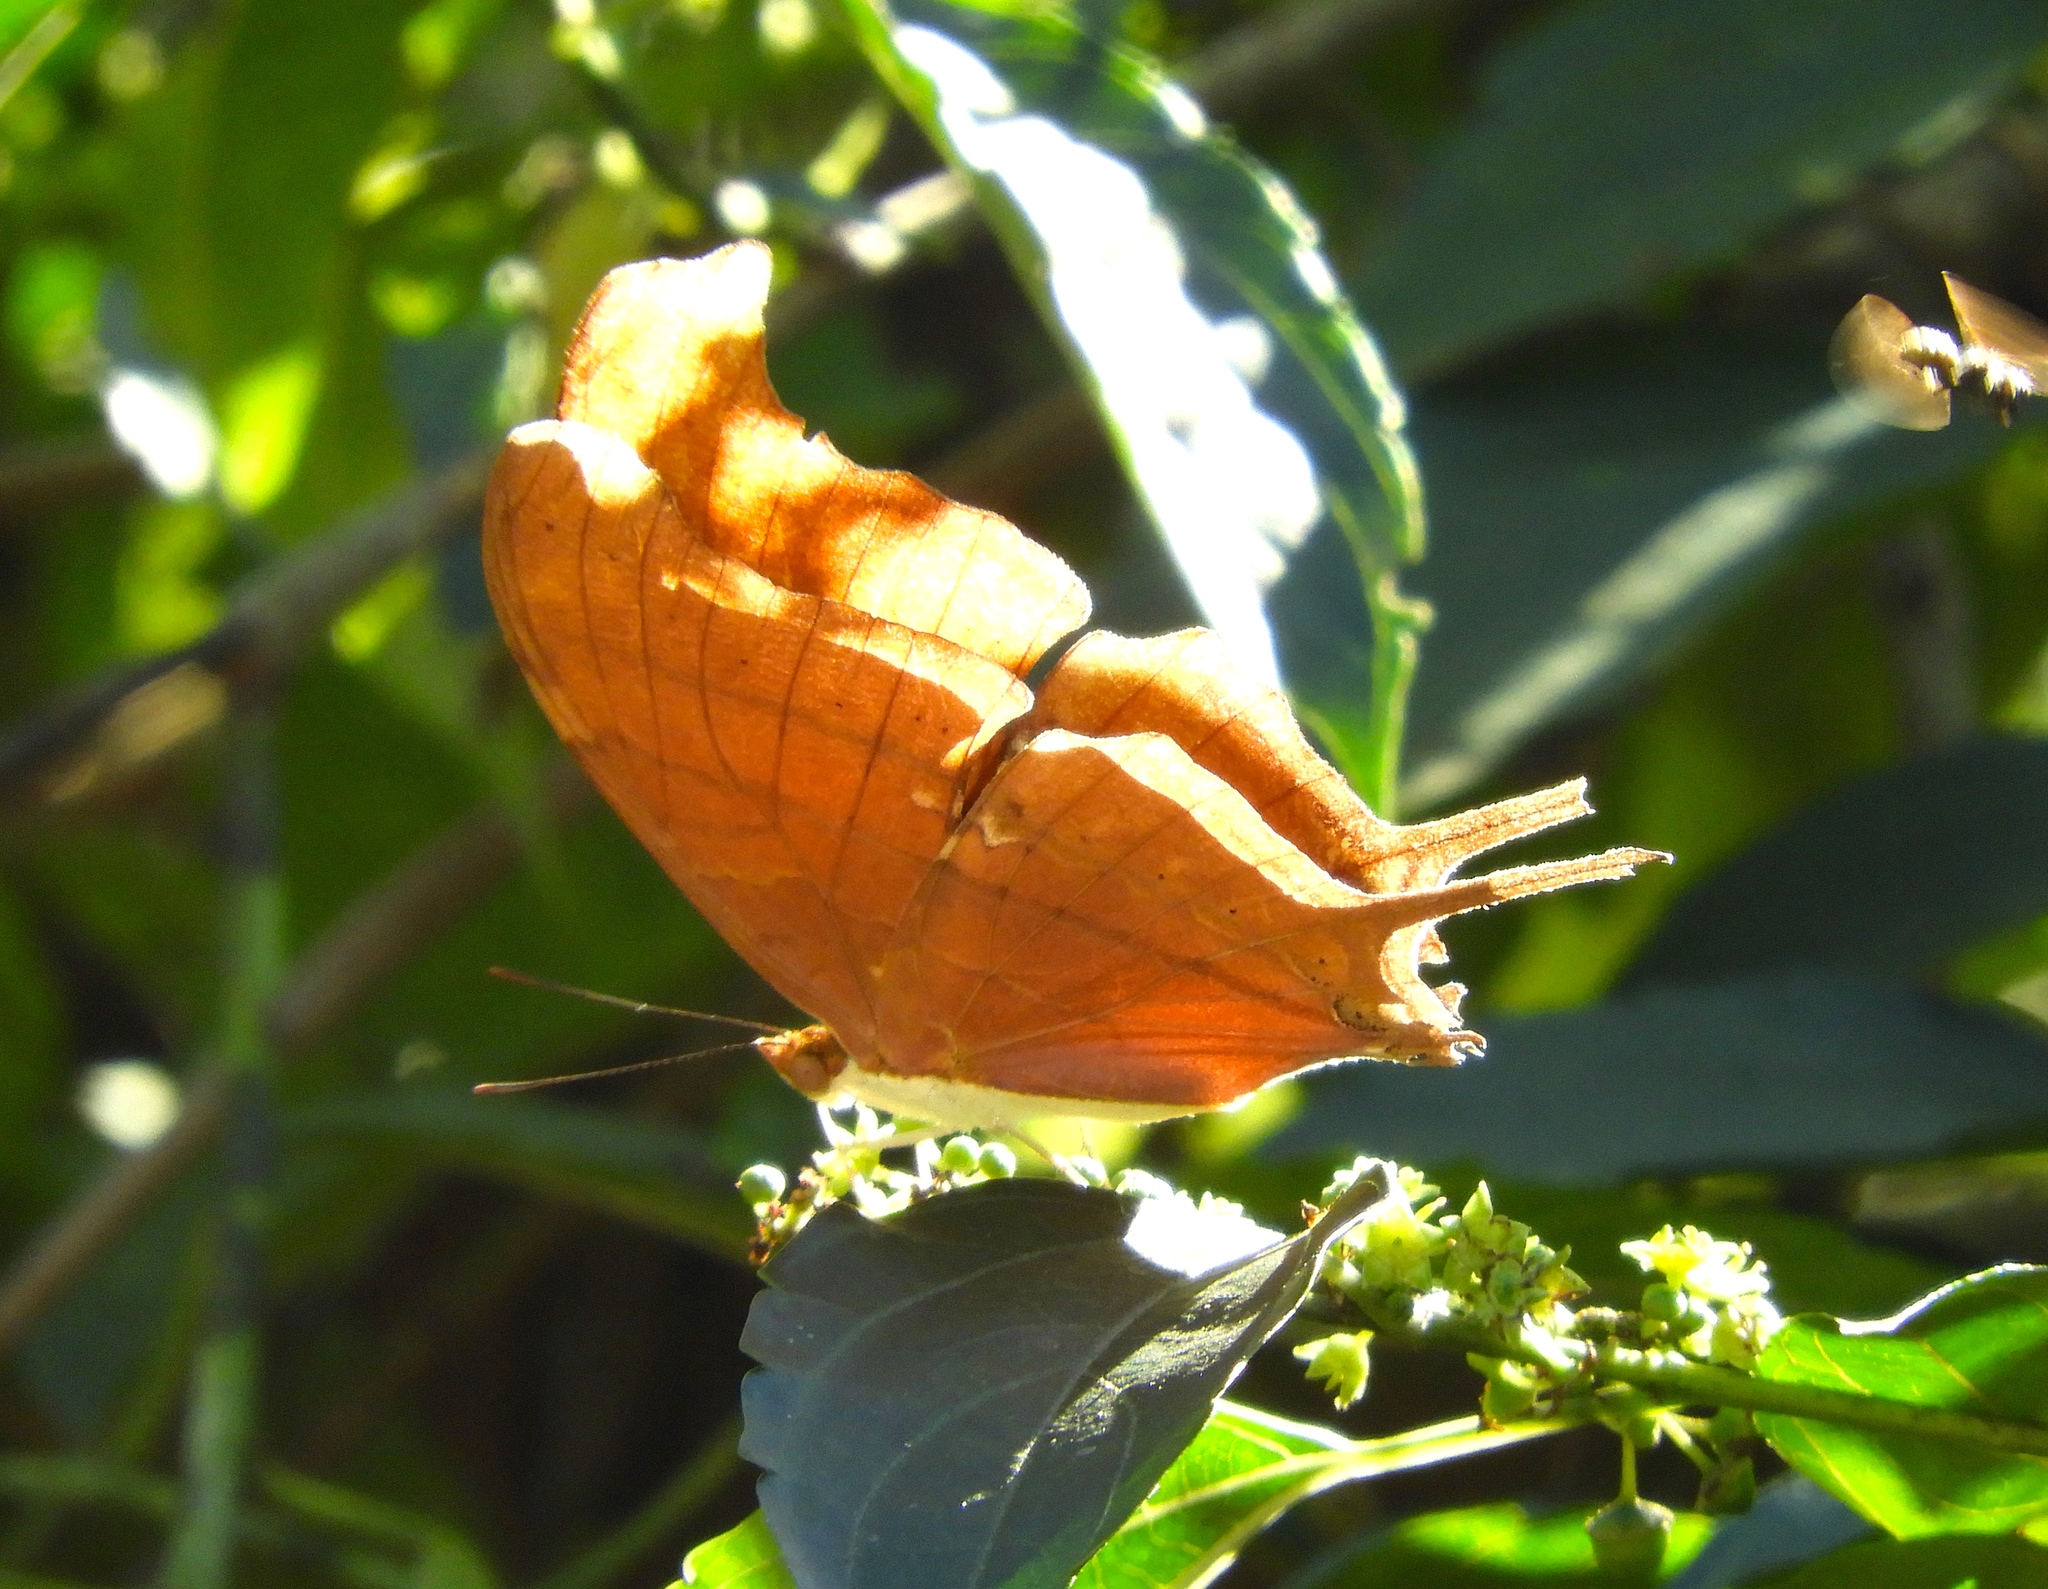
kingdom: Animalia
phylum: Arthropoda
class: Insecta
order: Lepidoptera
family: Nymphalidae
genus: Marpesia
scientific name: Marpesia petreus
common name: Red dagger wing
